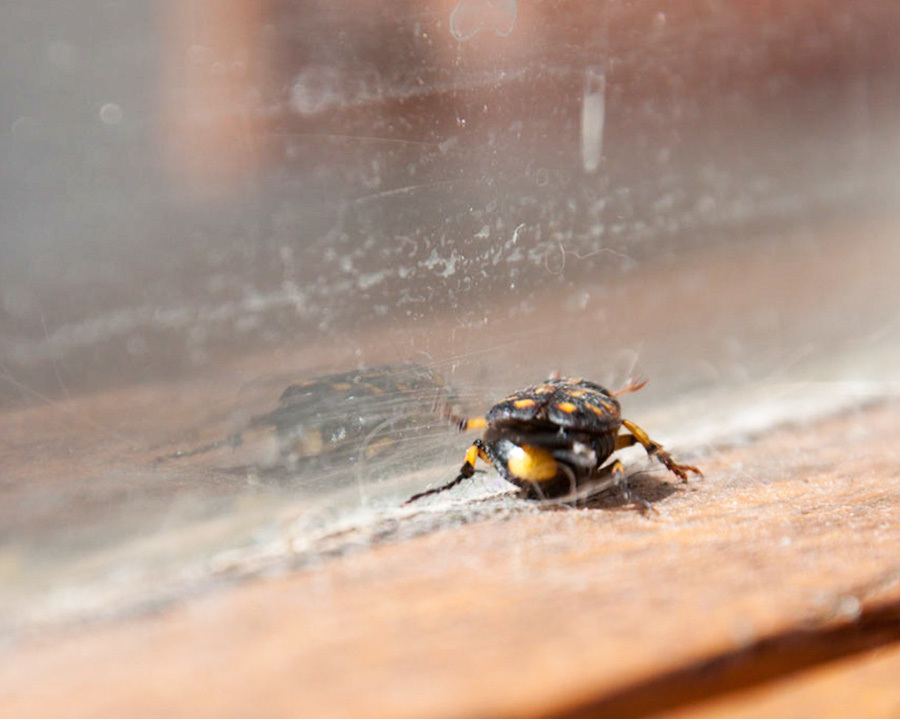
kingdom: Animalia
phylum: Arthropoda
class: Insecta
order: Coleoptera
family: Scarabaeidae
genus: Stripsipher
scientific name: Stripsipher zebra
